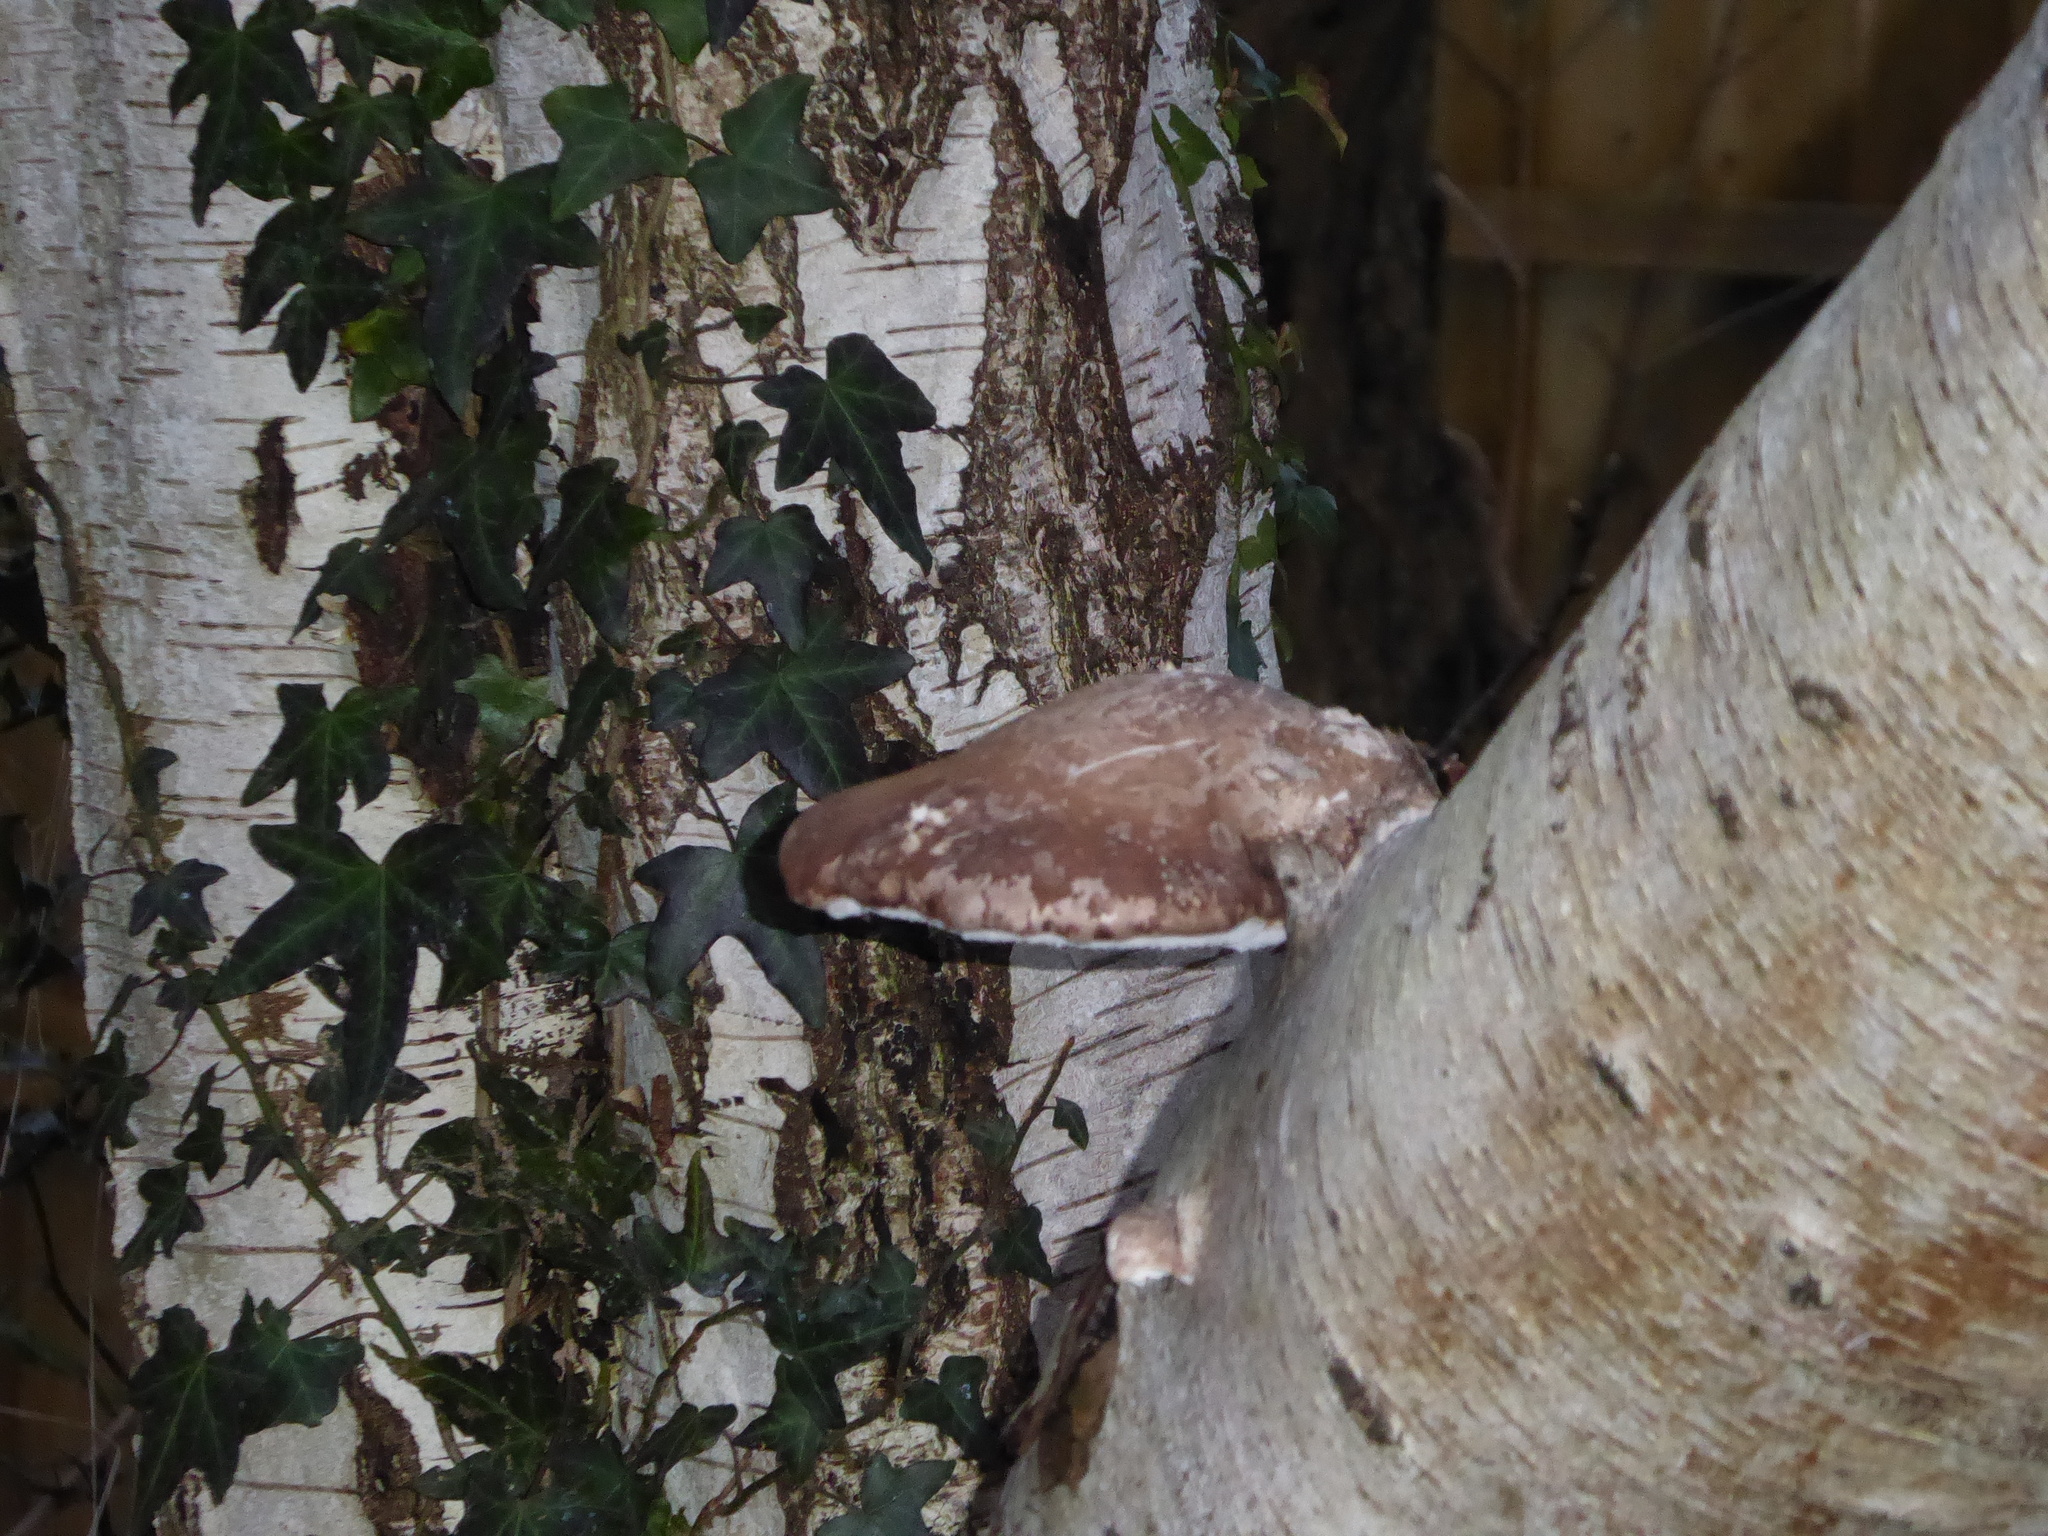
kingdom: Fungi
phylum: Basidiomycota
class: Agaricomycetes
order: Polyporales
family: Fomitopsidaceae
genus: Fomitopsis
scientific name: Fomitopsis betulina
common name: Birch polypore
